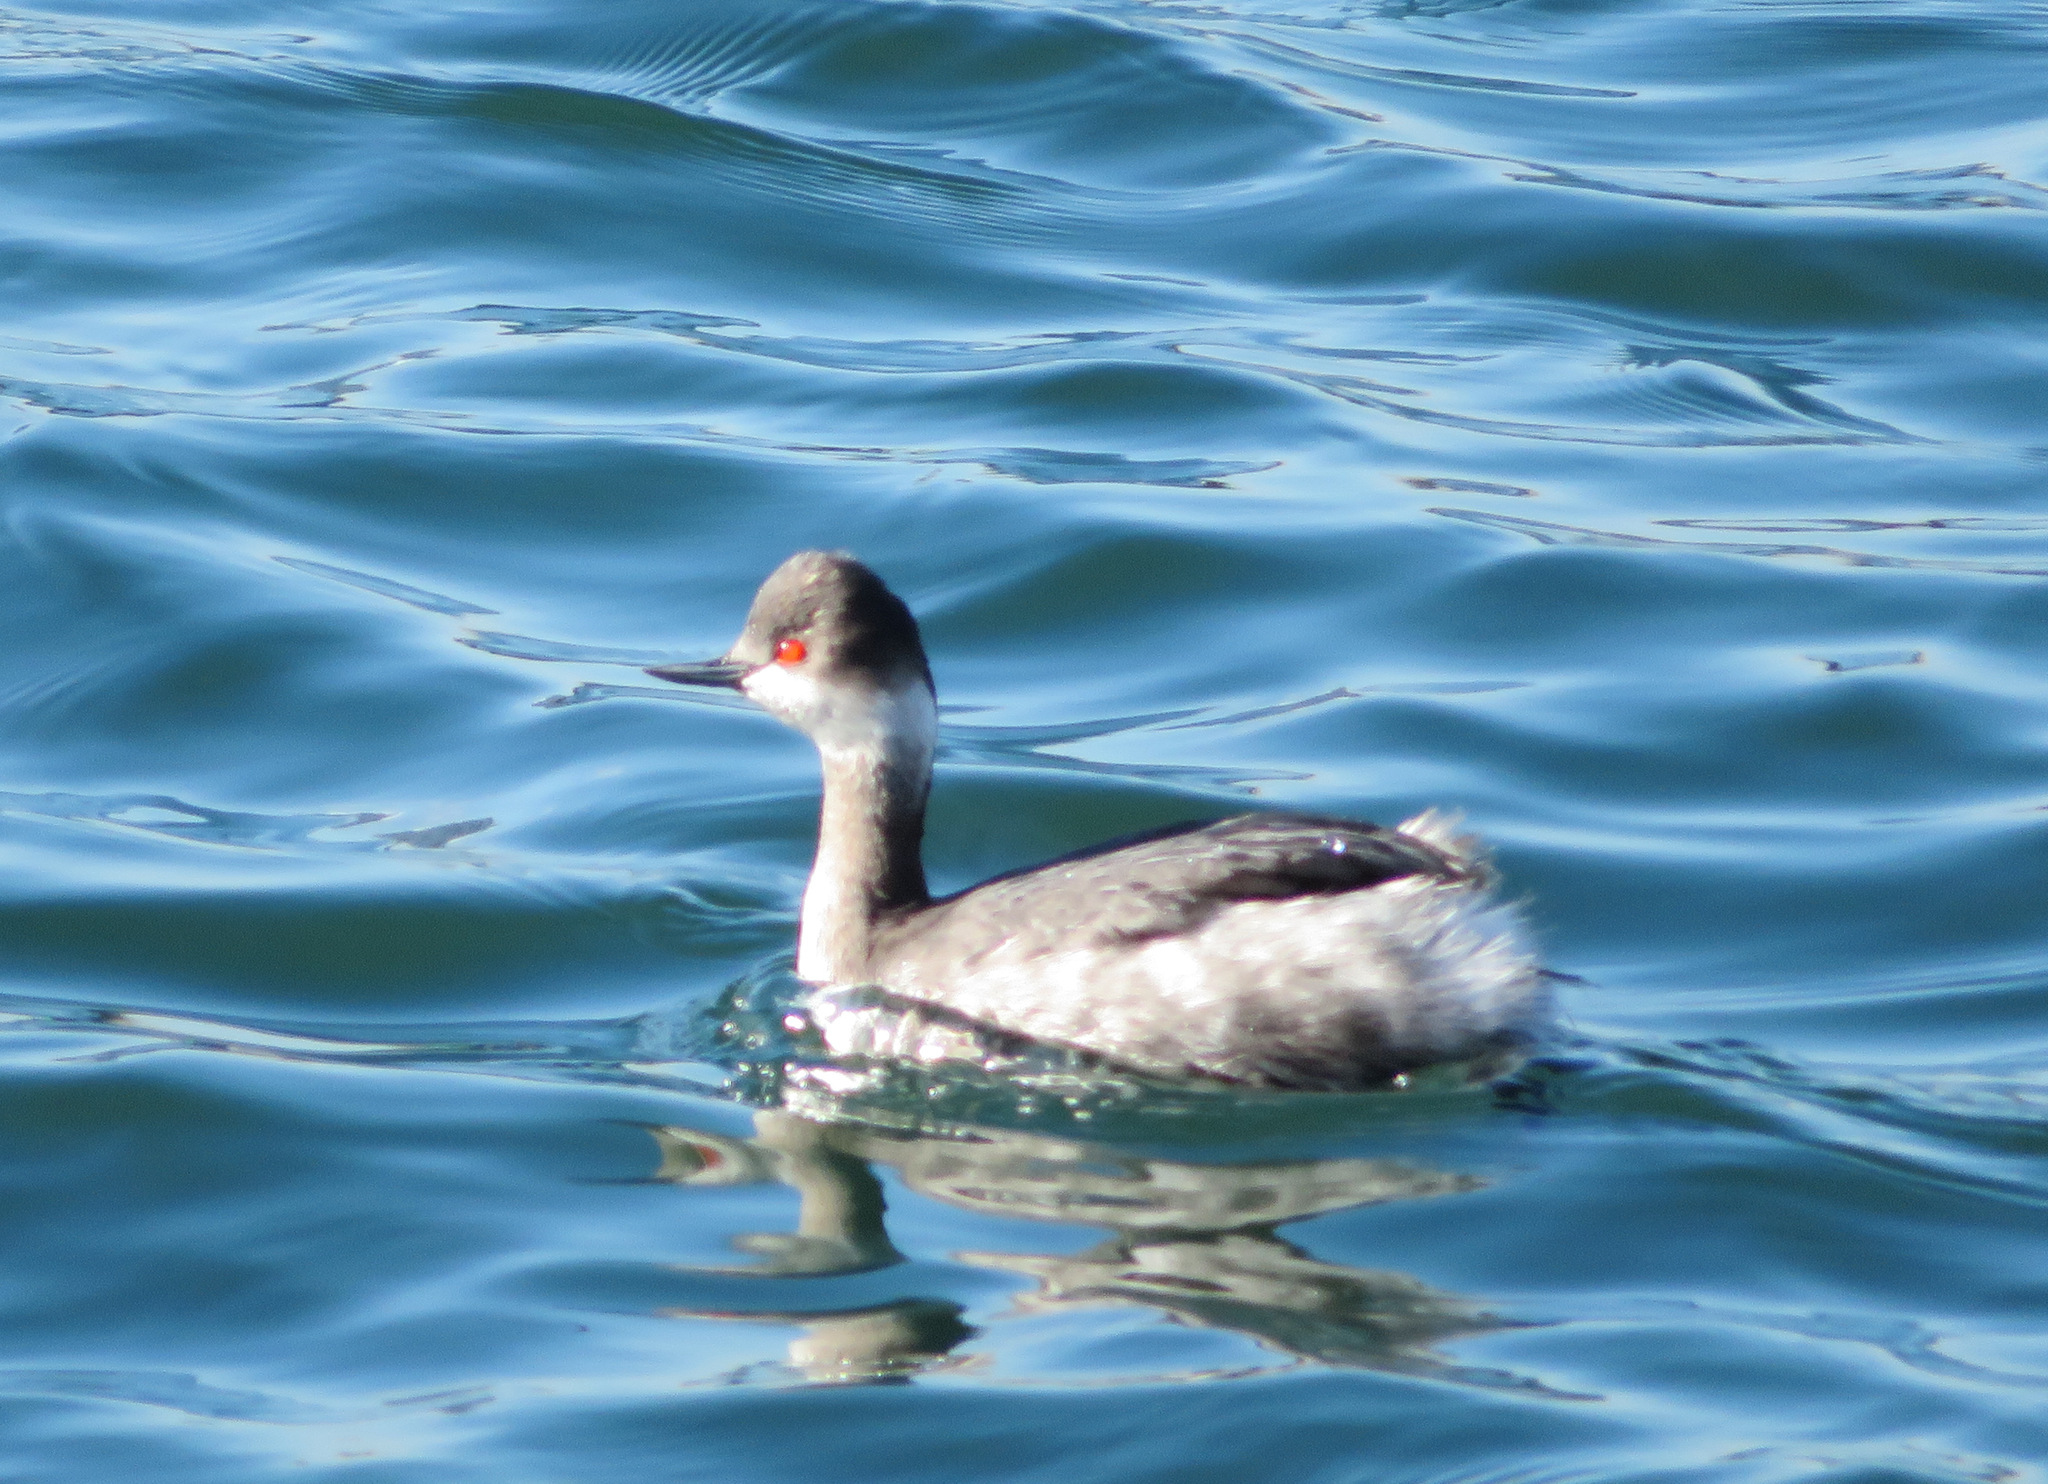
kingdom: Animalia
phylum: Chordata
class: Aves
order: Podicipediformes
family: Podicipedidae
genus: Podiceps
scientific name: Podiceps nigricollis
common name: Black-necked grebe
